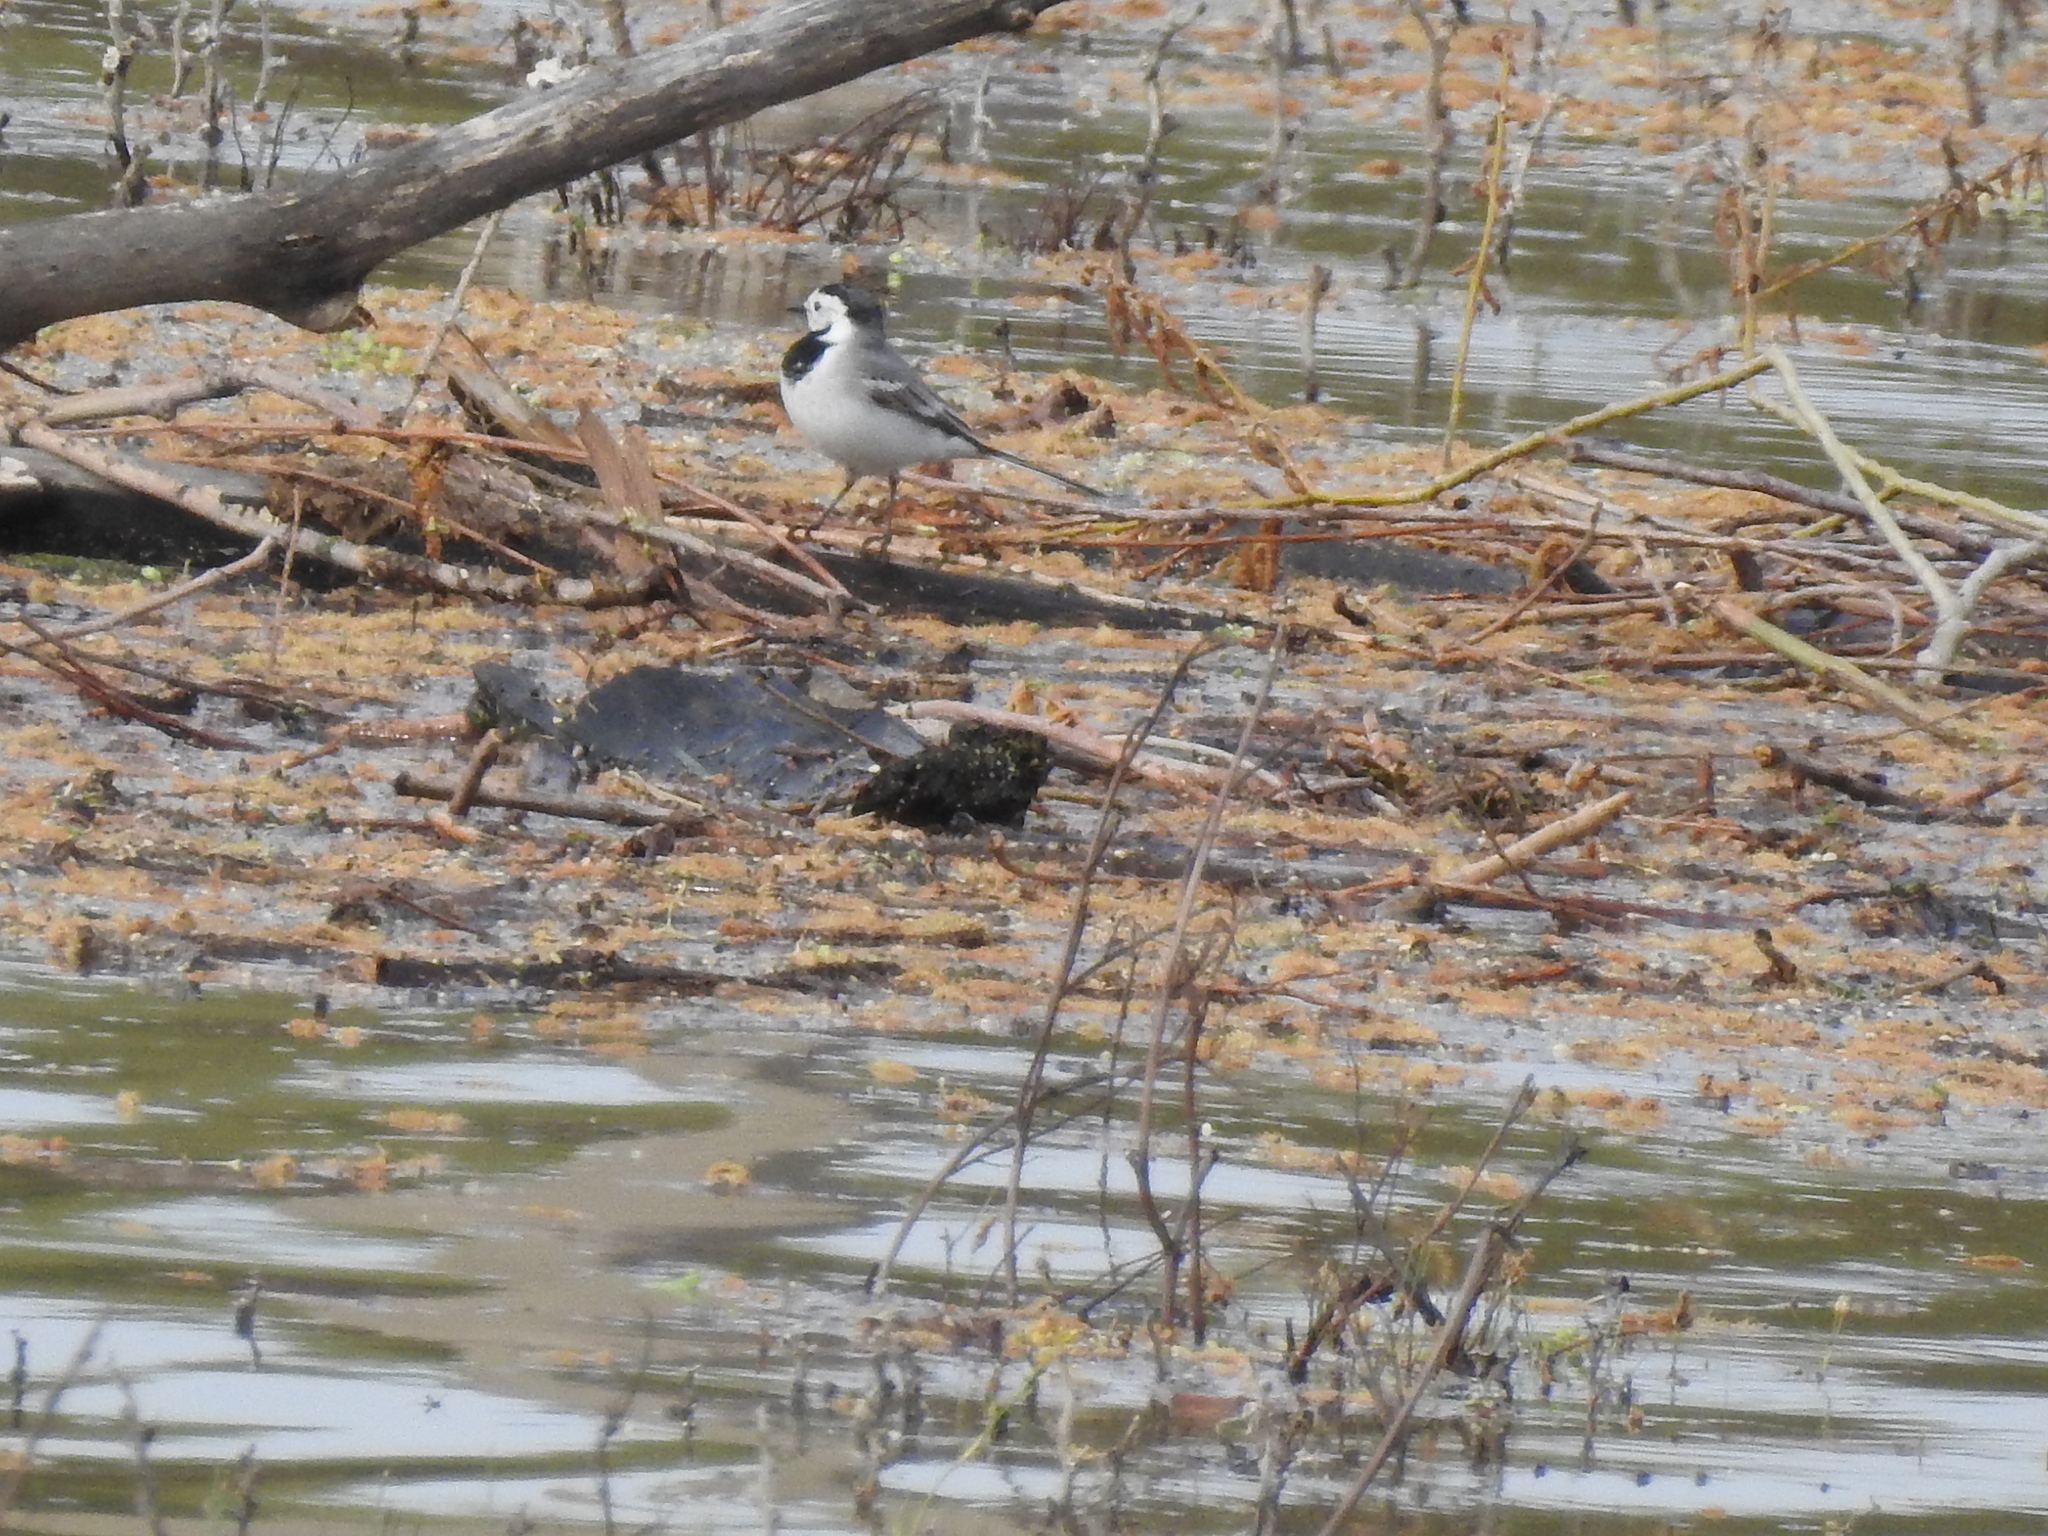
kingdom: Animalia
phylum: Chordata
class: Aves
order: Passeriformes
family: Motacillidae
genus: Motacilla
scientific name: Motacilla alba
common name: White wagtail
